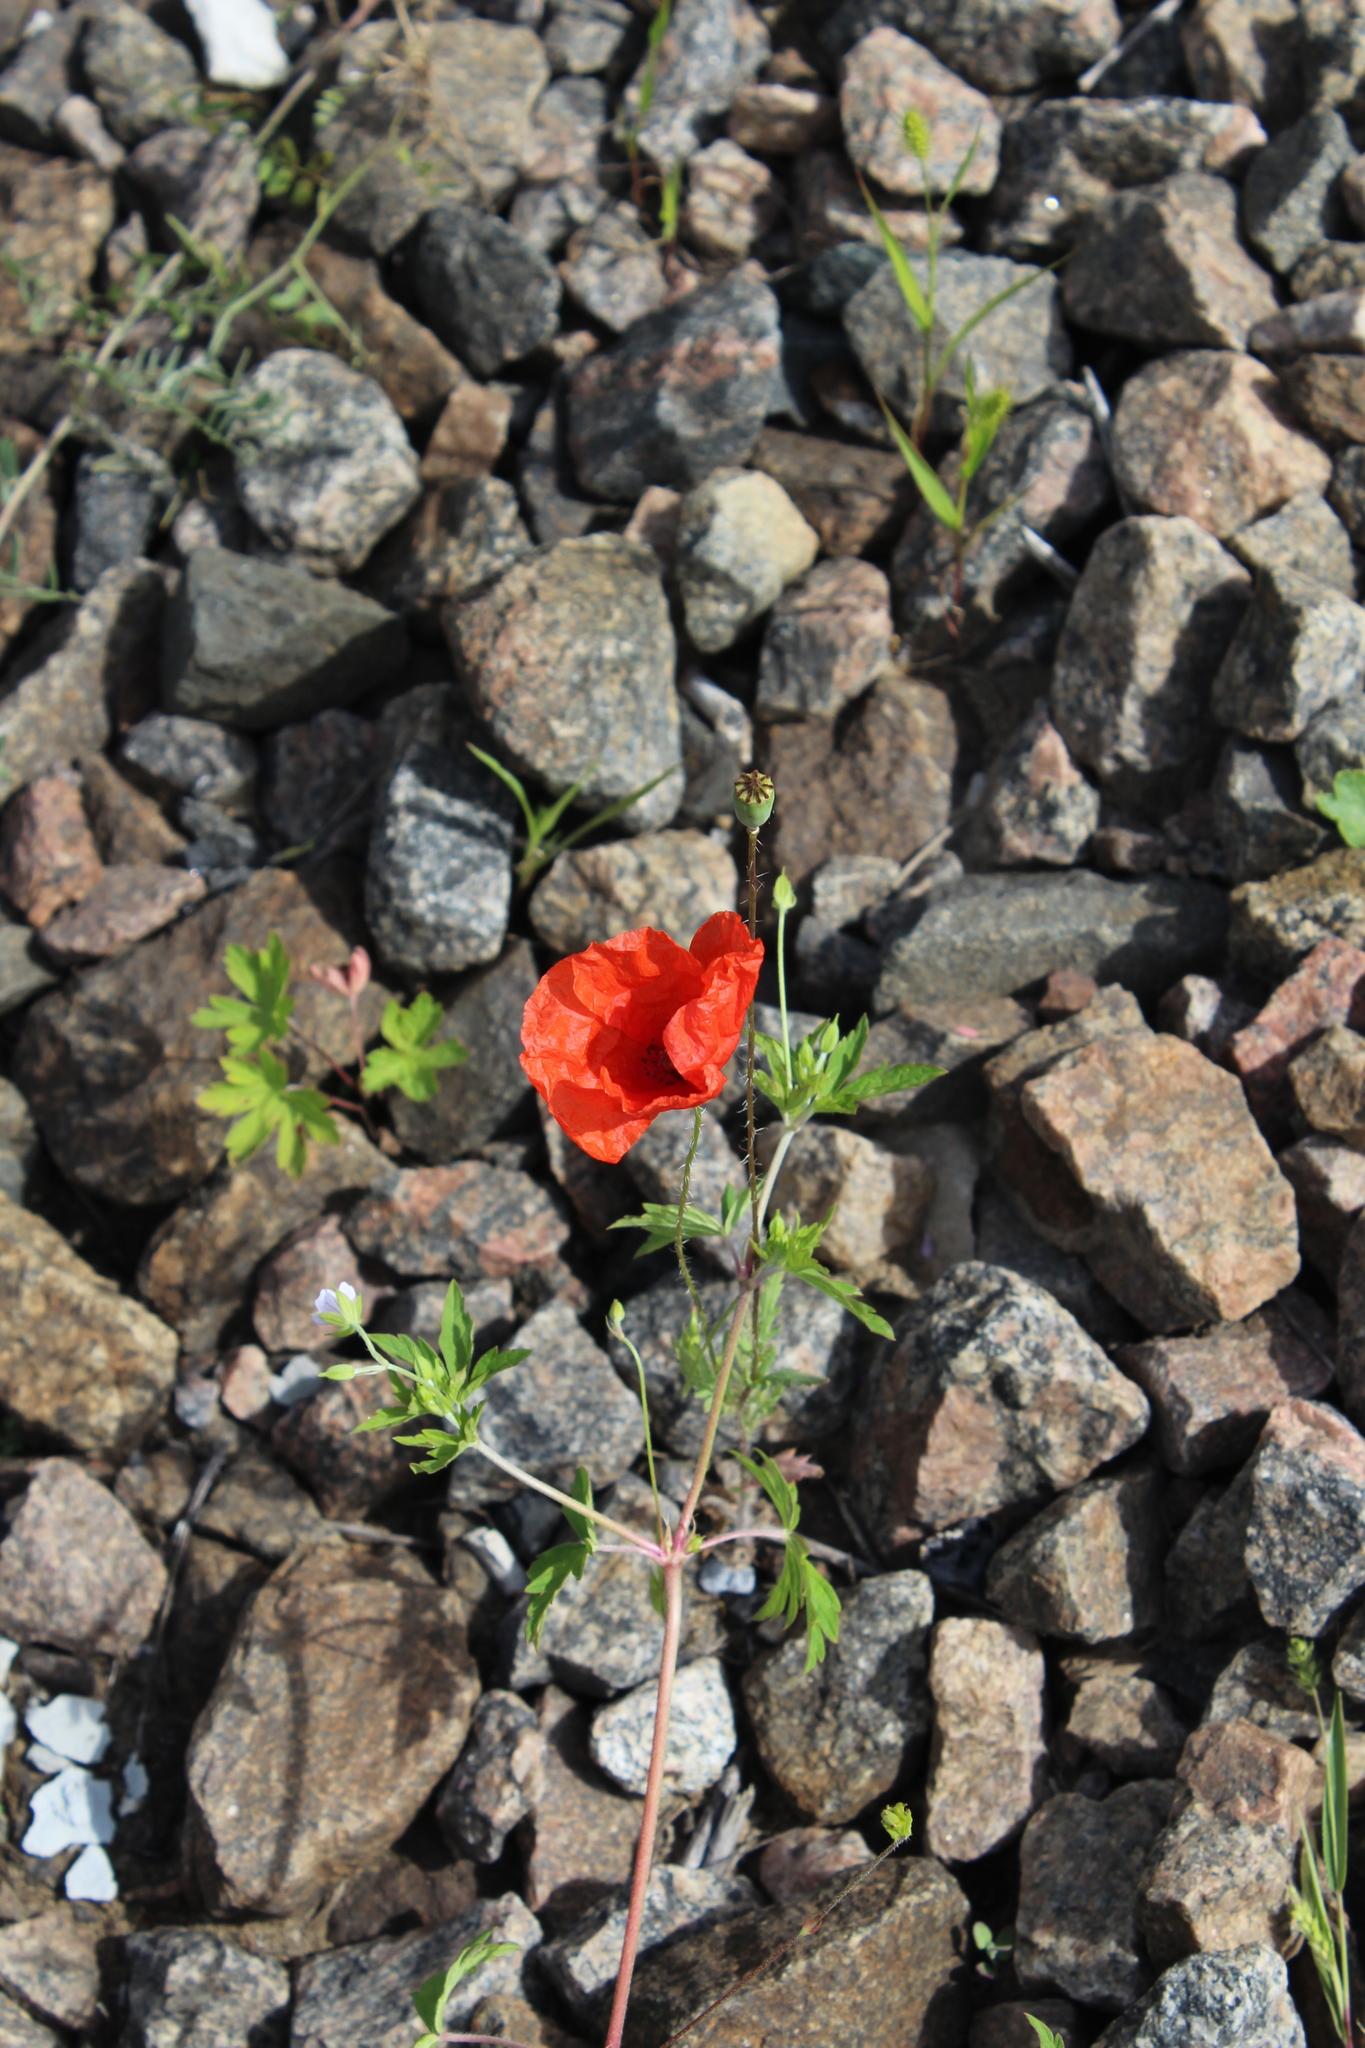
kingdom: Plantae
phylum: Tracheophyta
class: Magnoliopsida
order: Ranunculales
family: Papaveraceae
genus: Papaver
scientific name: Papaver rhoeas
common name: Corn poppy
